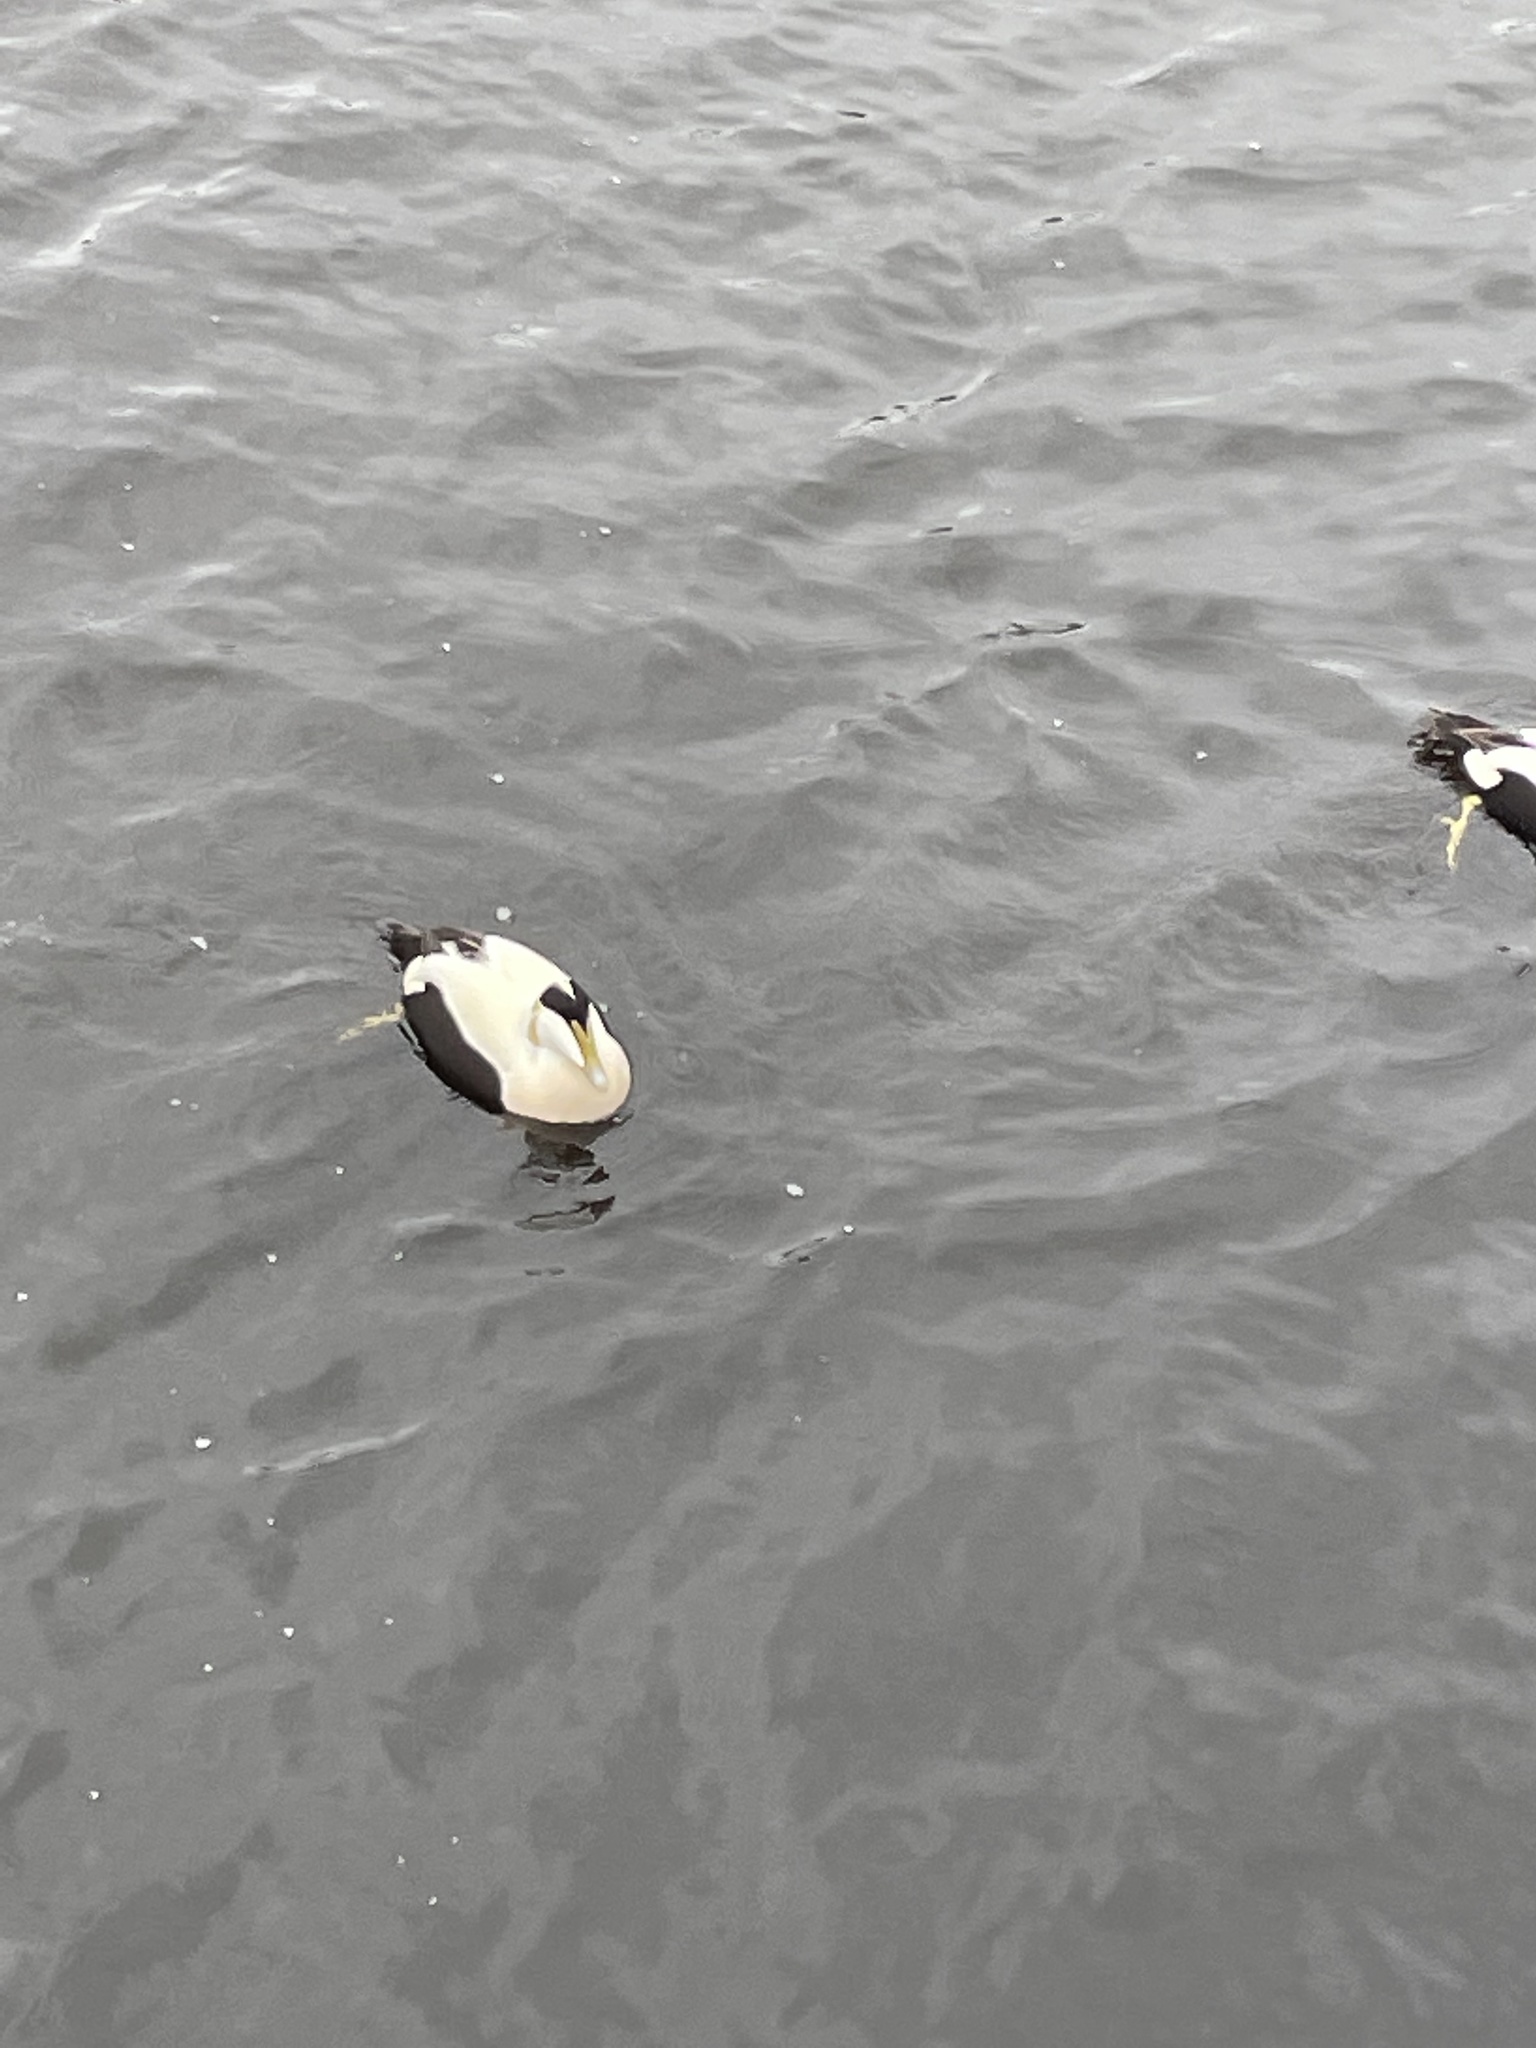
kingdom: Animalia
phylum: Chordata
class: Aves
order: Anseriformes
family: Anatidae
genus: Somateria
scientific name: Somateria mollissima
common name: Common eider
